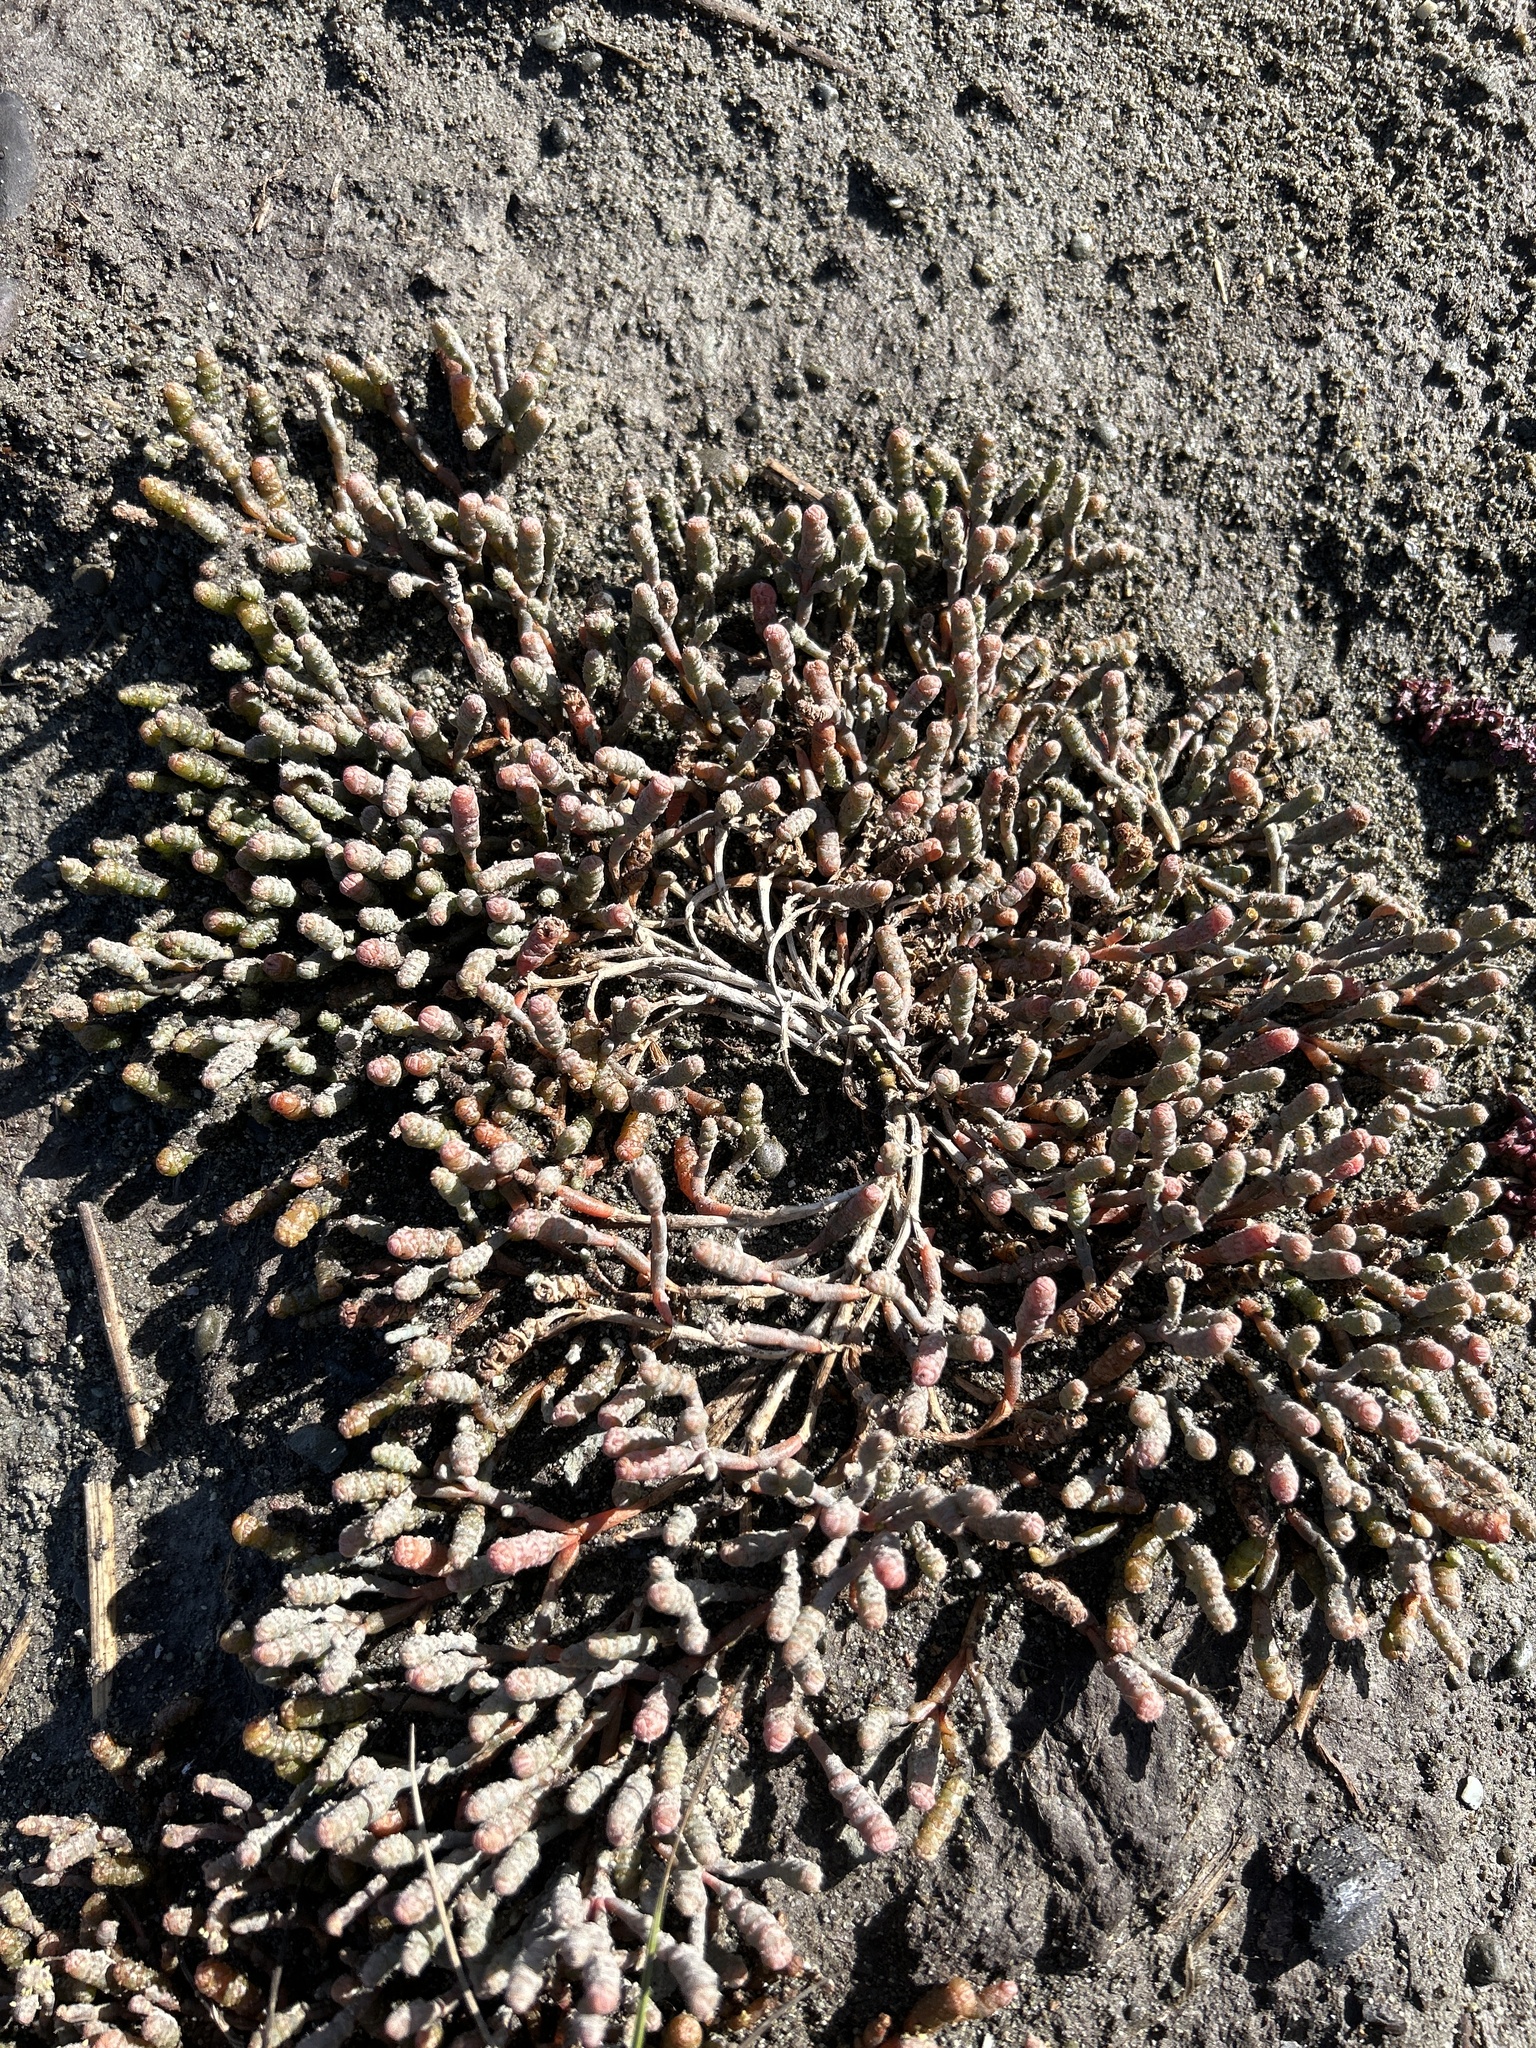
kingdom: Plantae
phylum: Tracheophyta
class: Magnoliopsida
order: Caryophyllales
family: Amaranthaceae
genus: Salicornia
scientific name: Salicornia quinqueflora
